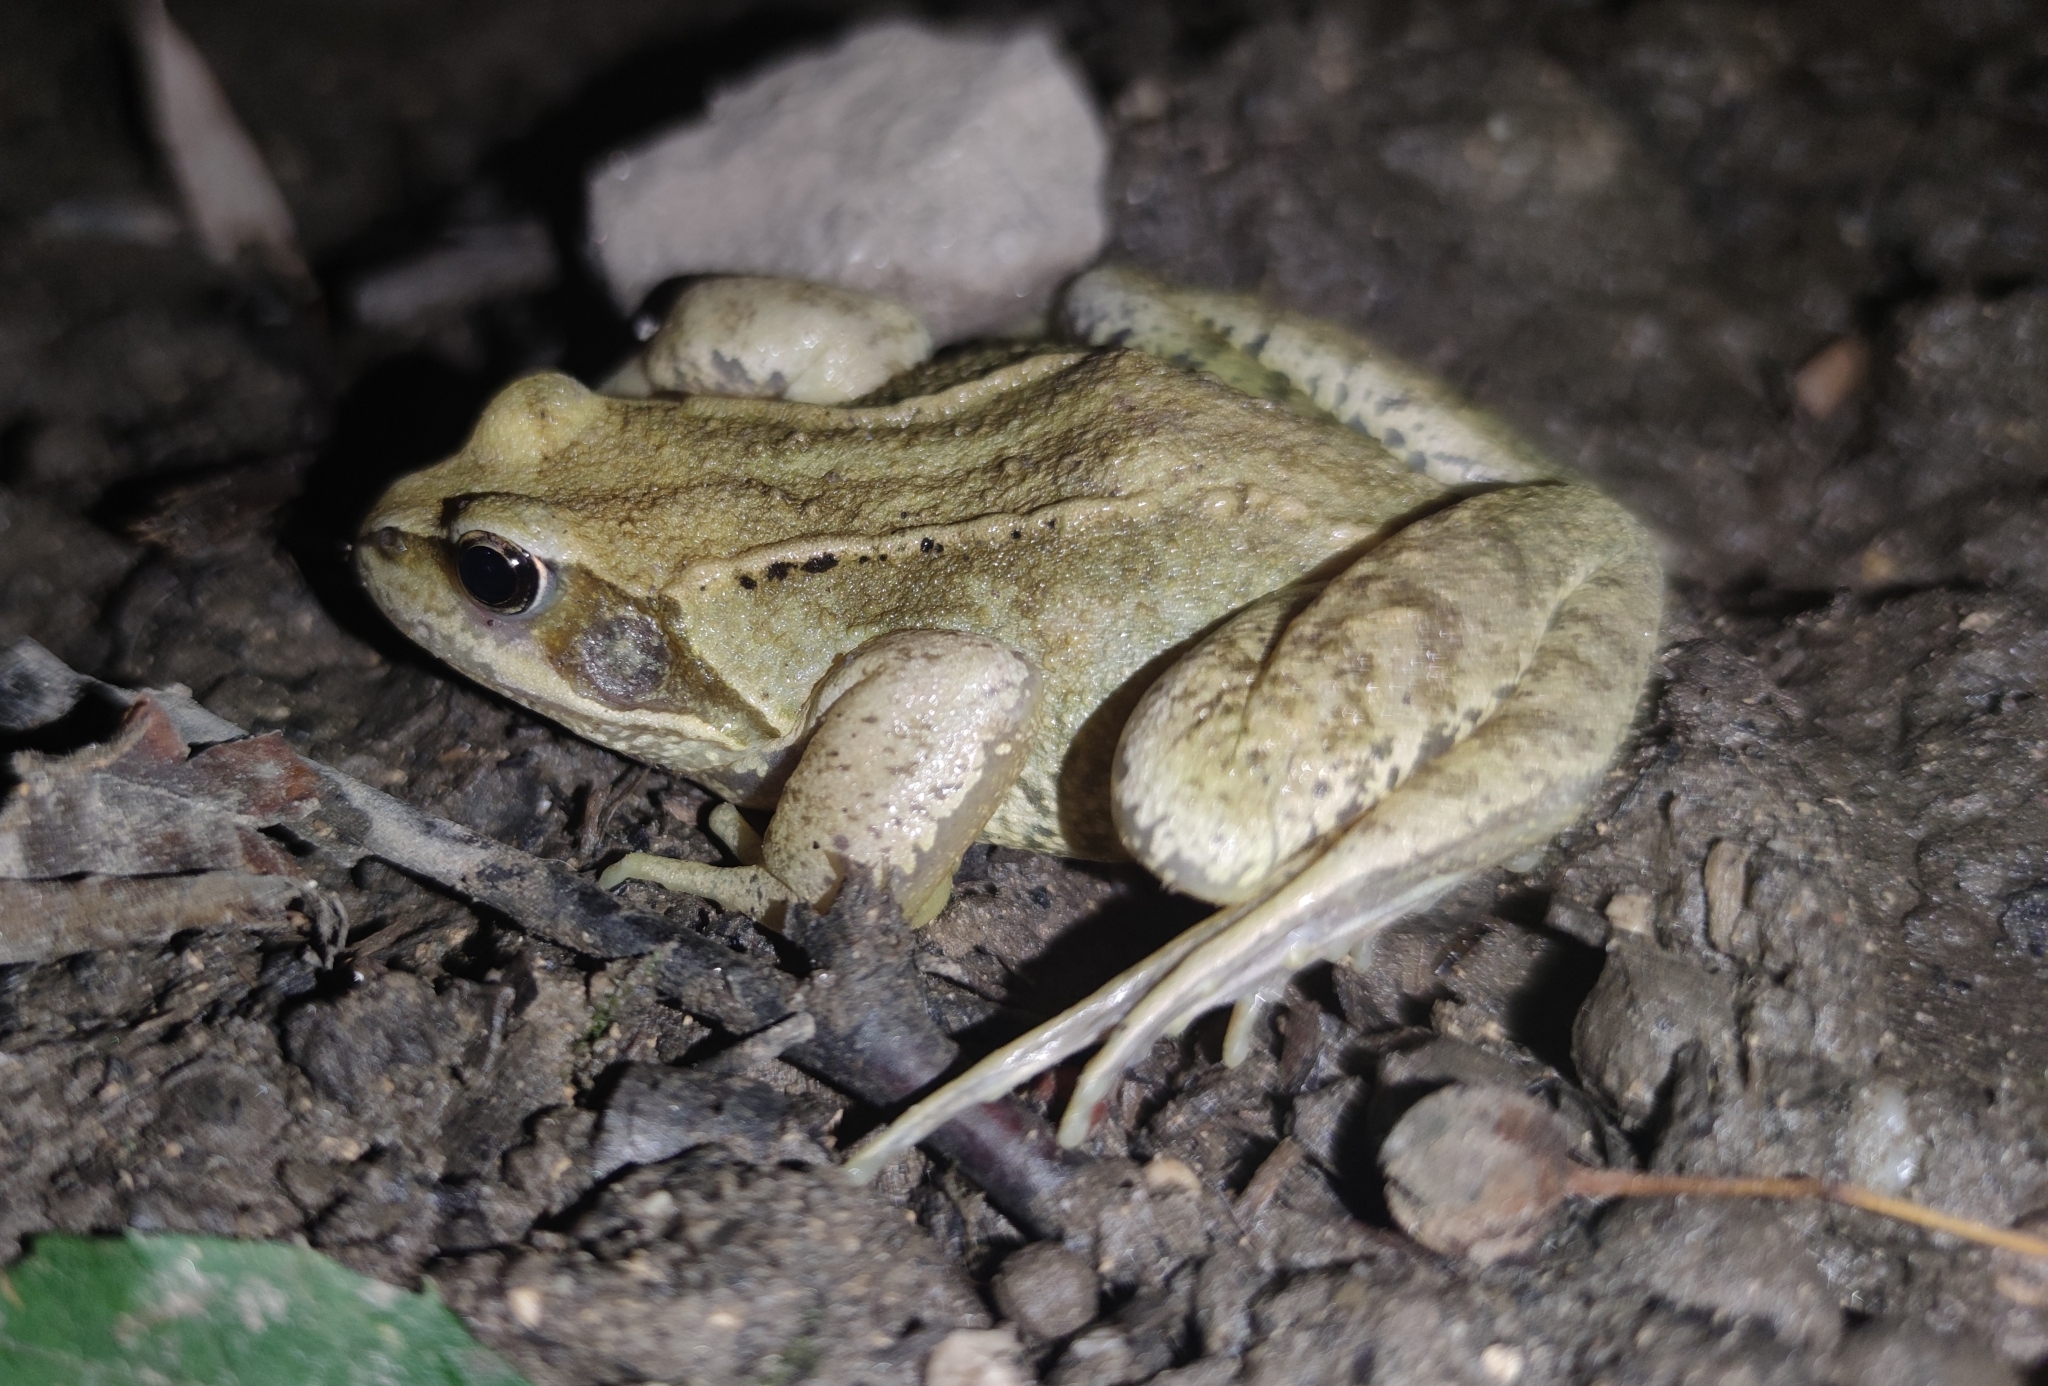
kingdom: Animalia
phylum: Chordata
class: Amphibia
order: Anura
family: Ranidae
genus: Rana
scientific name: Rana temporaria
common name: Common frog
